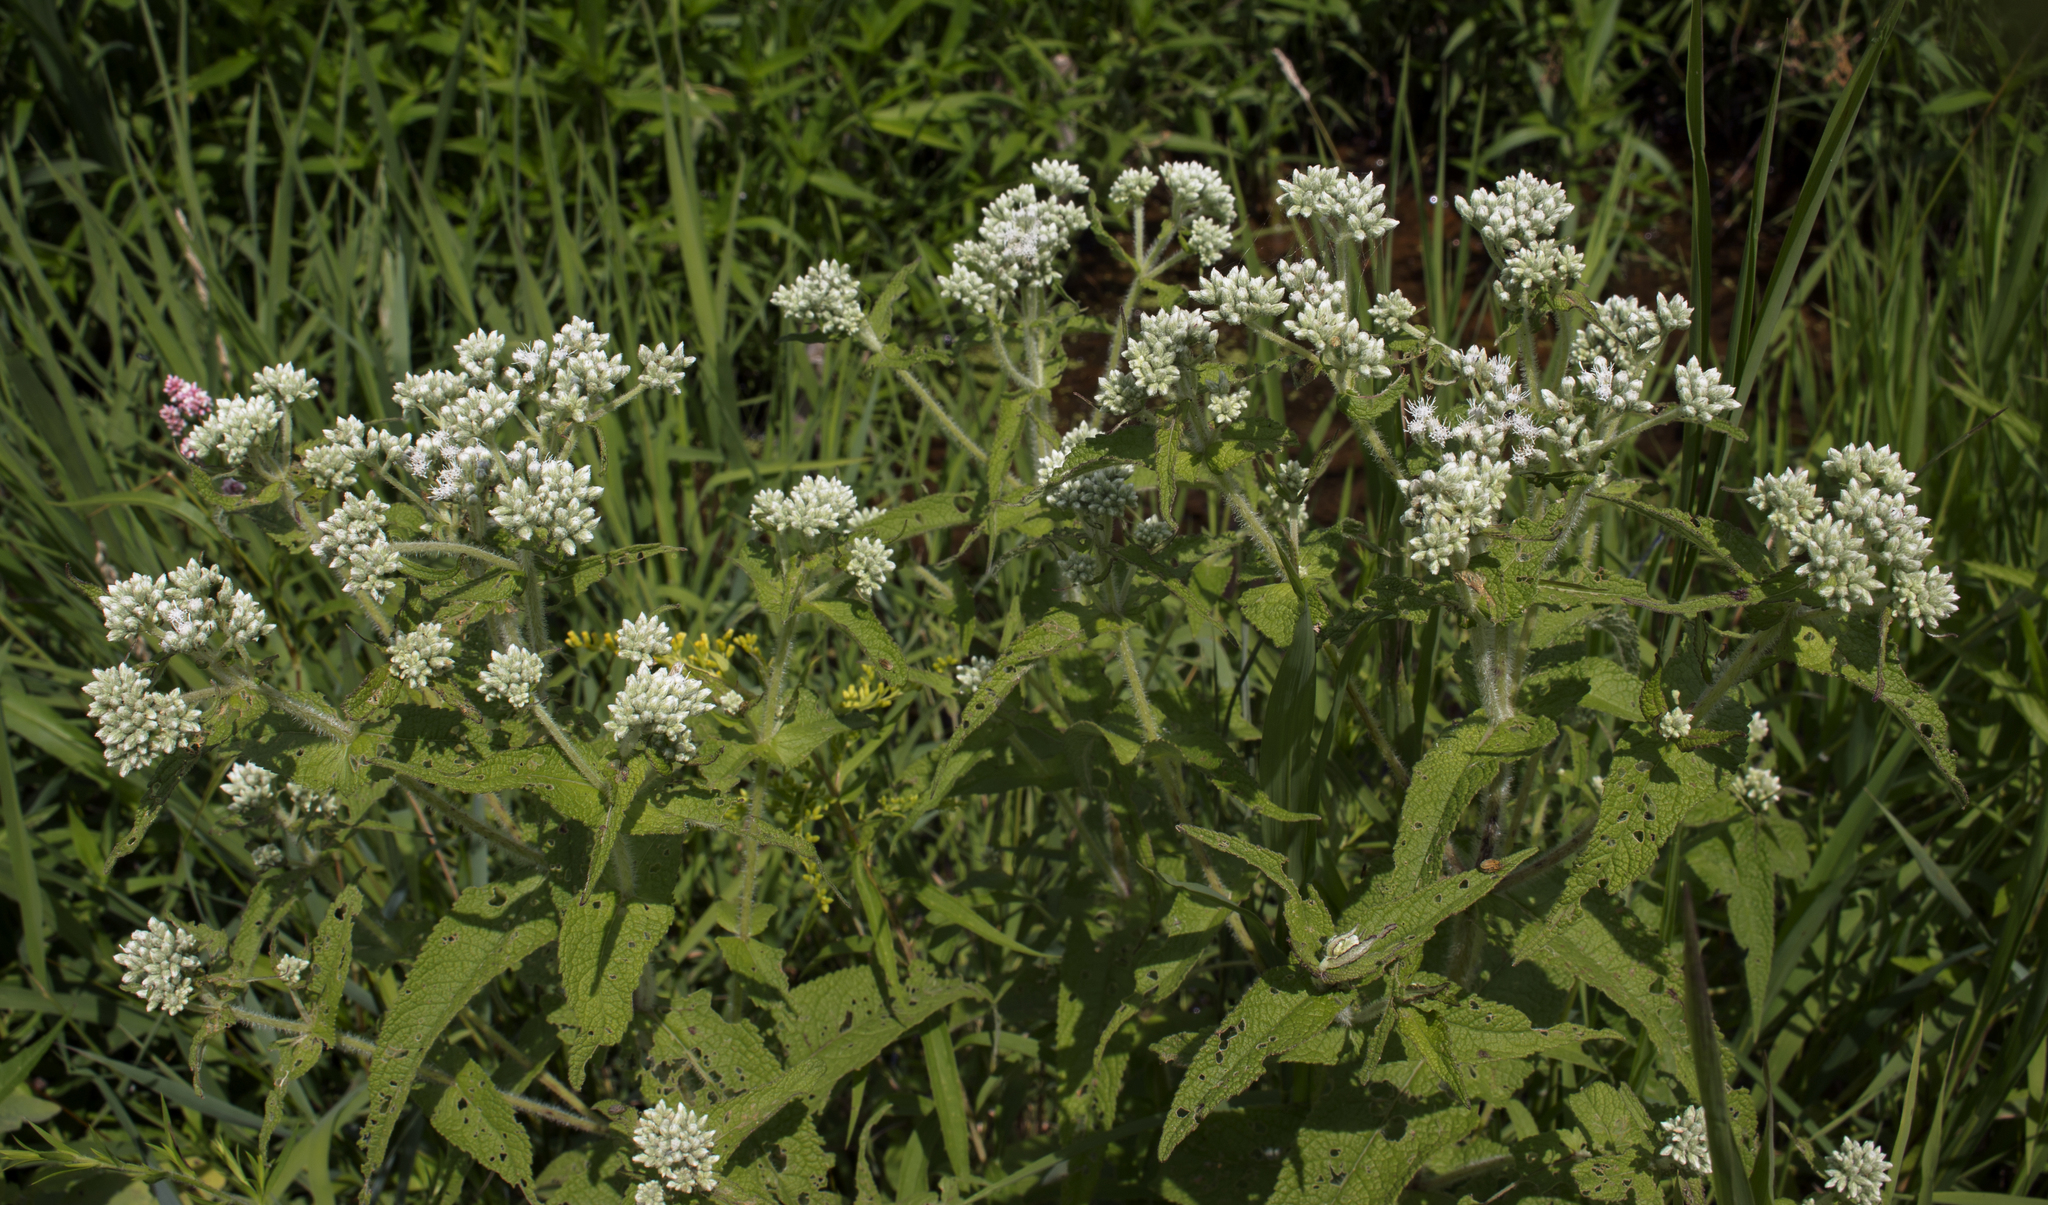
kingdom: Plantae
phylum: Tracheophyta
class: Magnoliopsida
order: Asterales
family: Asteraceae
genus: Eupatorium
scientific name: Eupatorium perfoliatum
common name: Boneset
